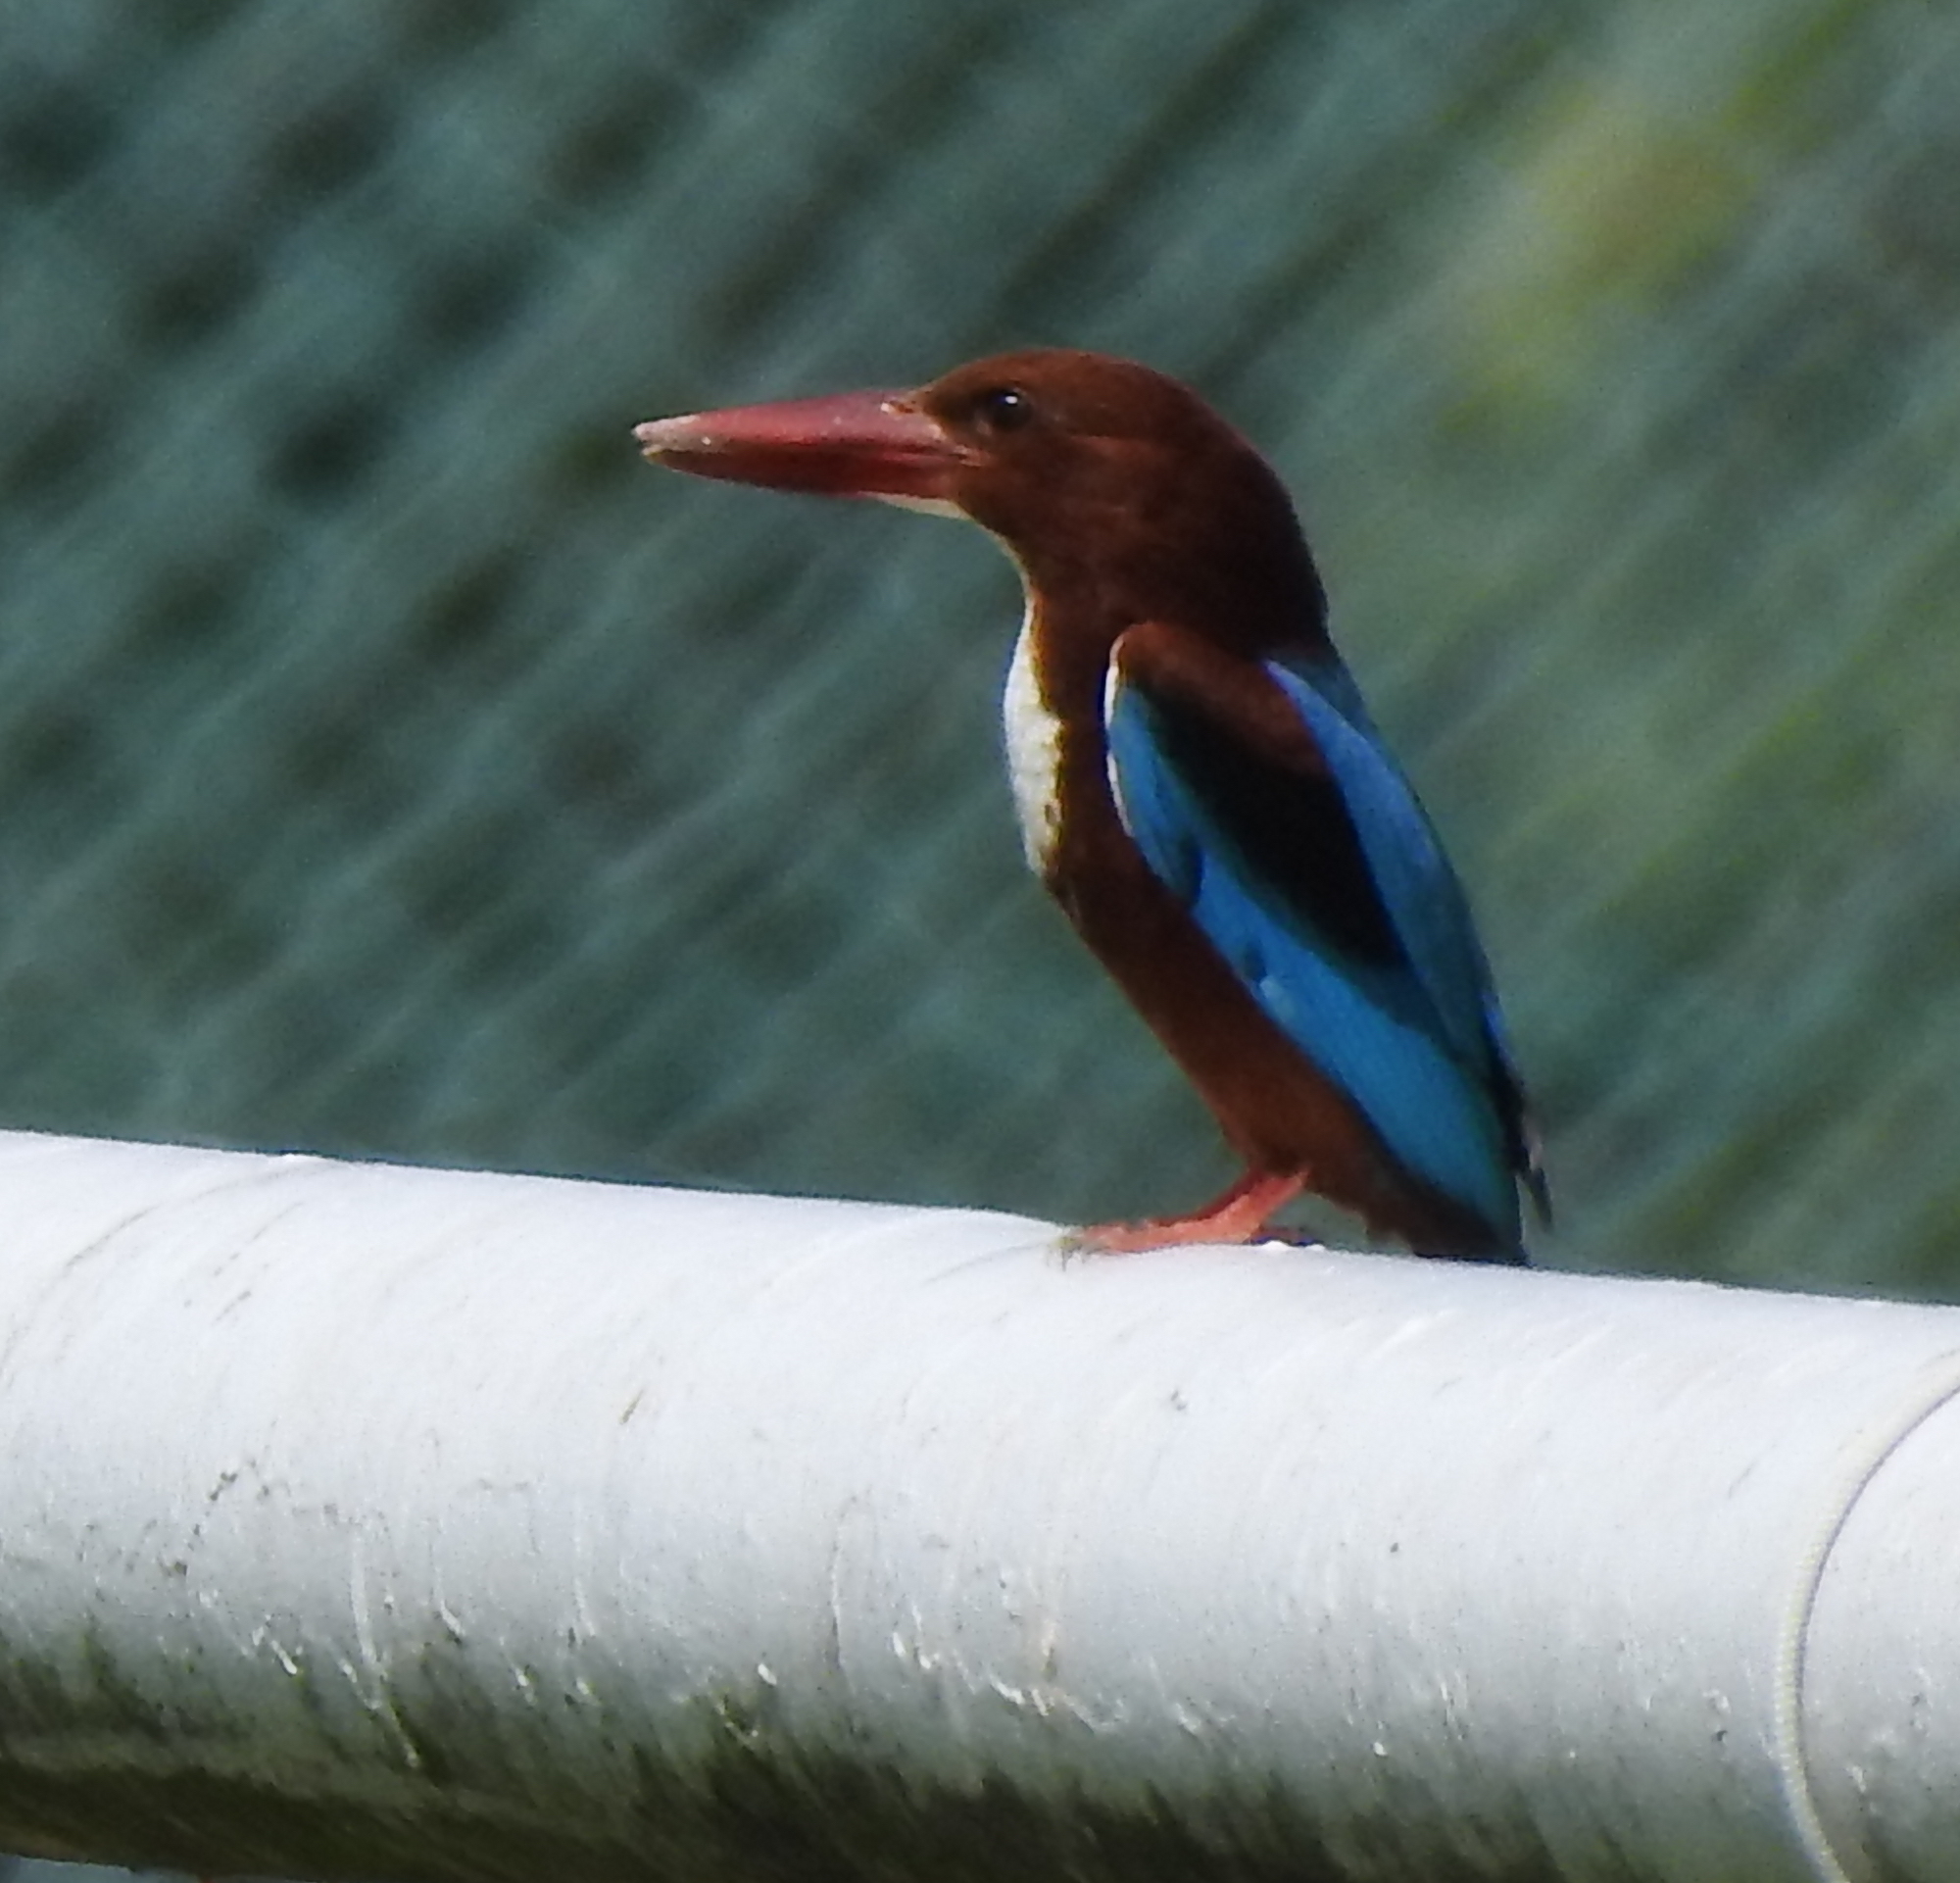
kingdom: Animalia
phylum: Chordata
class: Aves
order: Coraciiformes
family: Alcedinidae
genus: Halcyon
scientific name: Halcyon smyrnensis
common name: White-throated kingfisher
